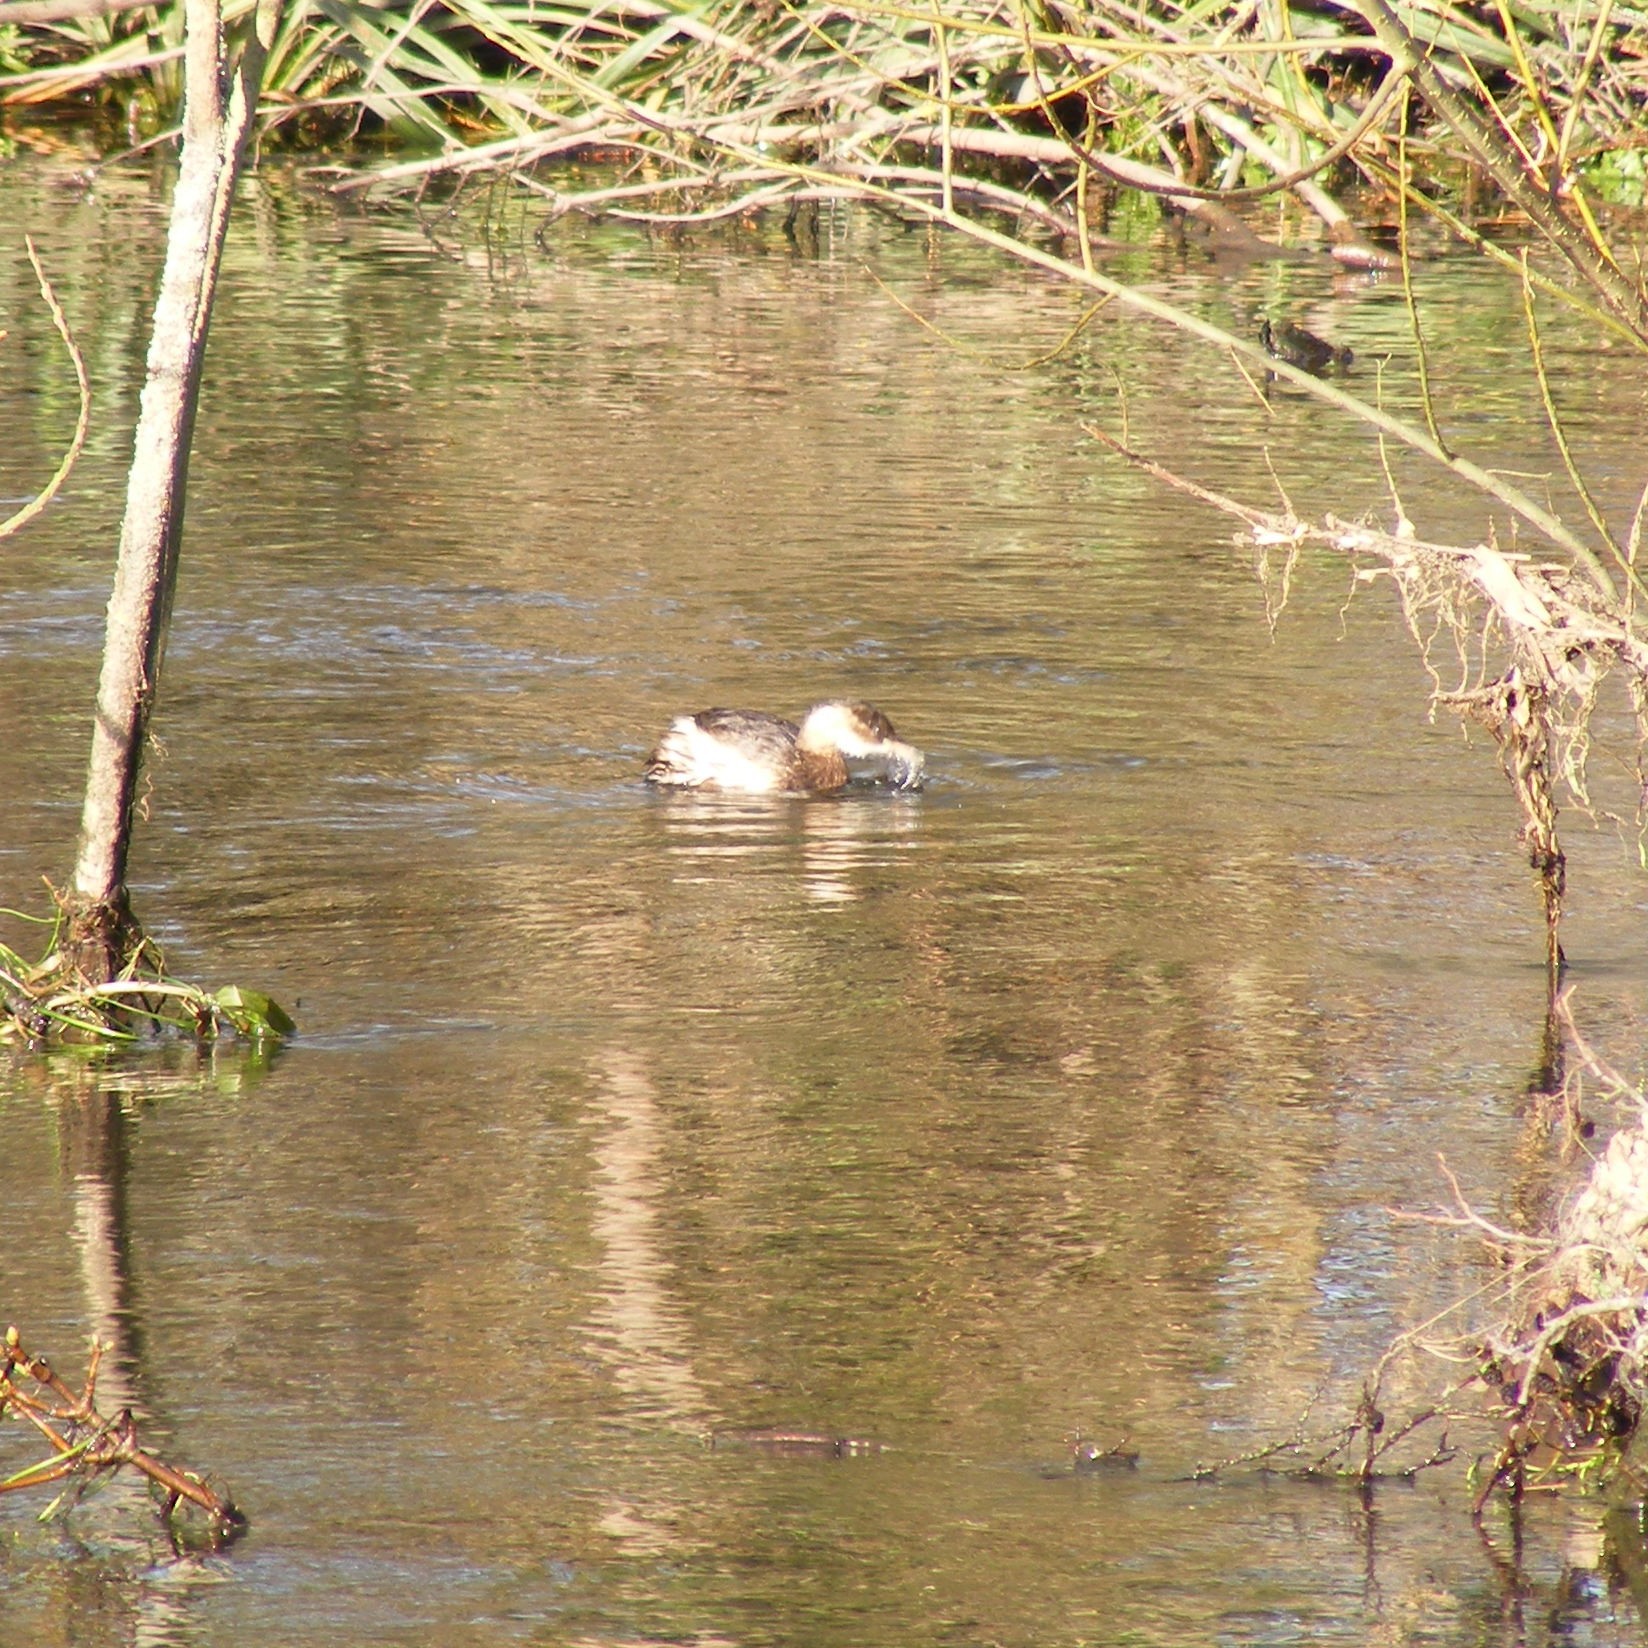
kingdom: Animalia
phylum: Chordata
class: Aves
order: Podicipediformes
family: Podicipedidae
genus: Tachybaptus
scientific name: Tachybaptus ruficollis
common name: Little grebe
